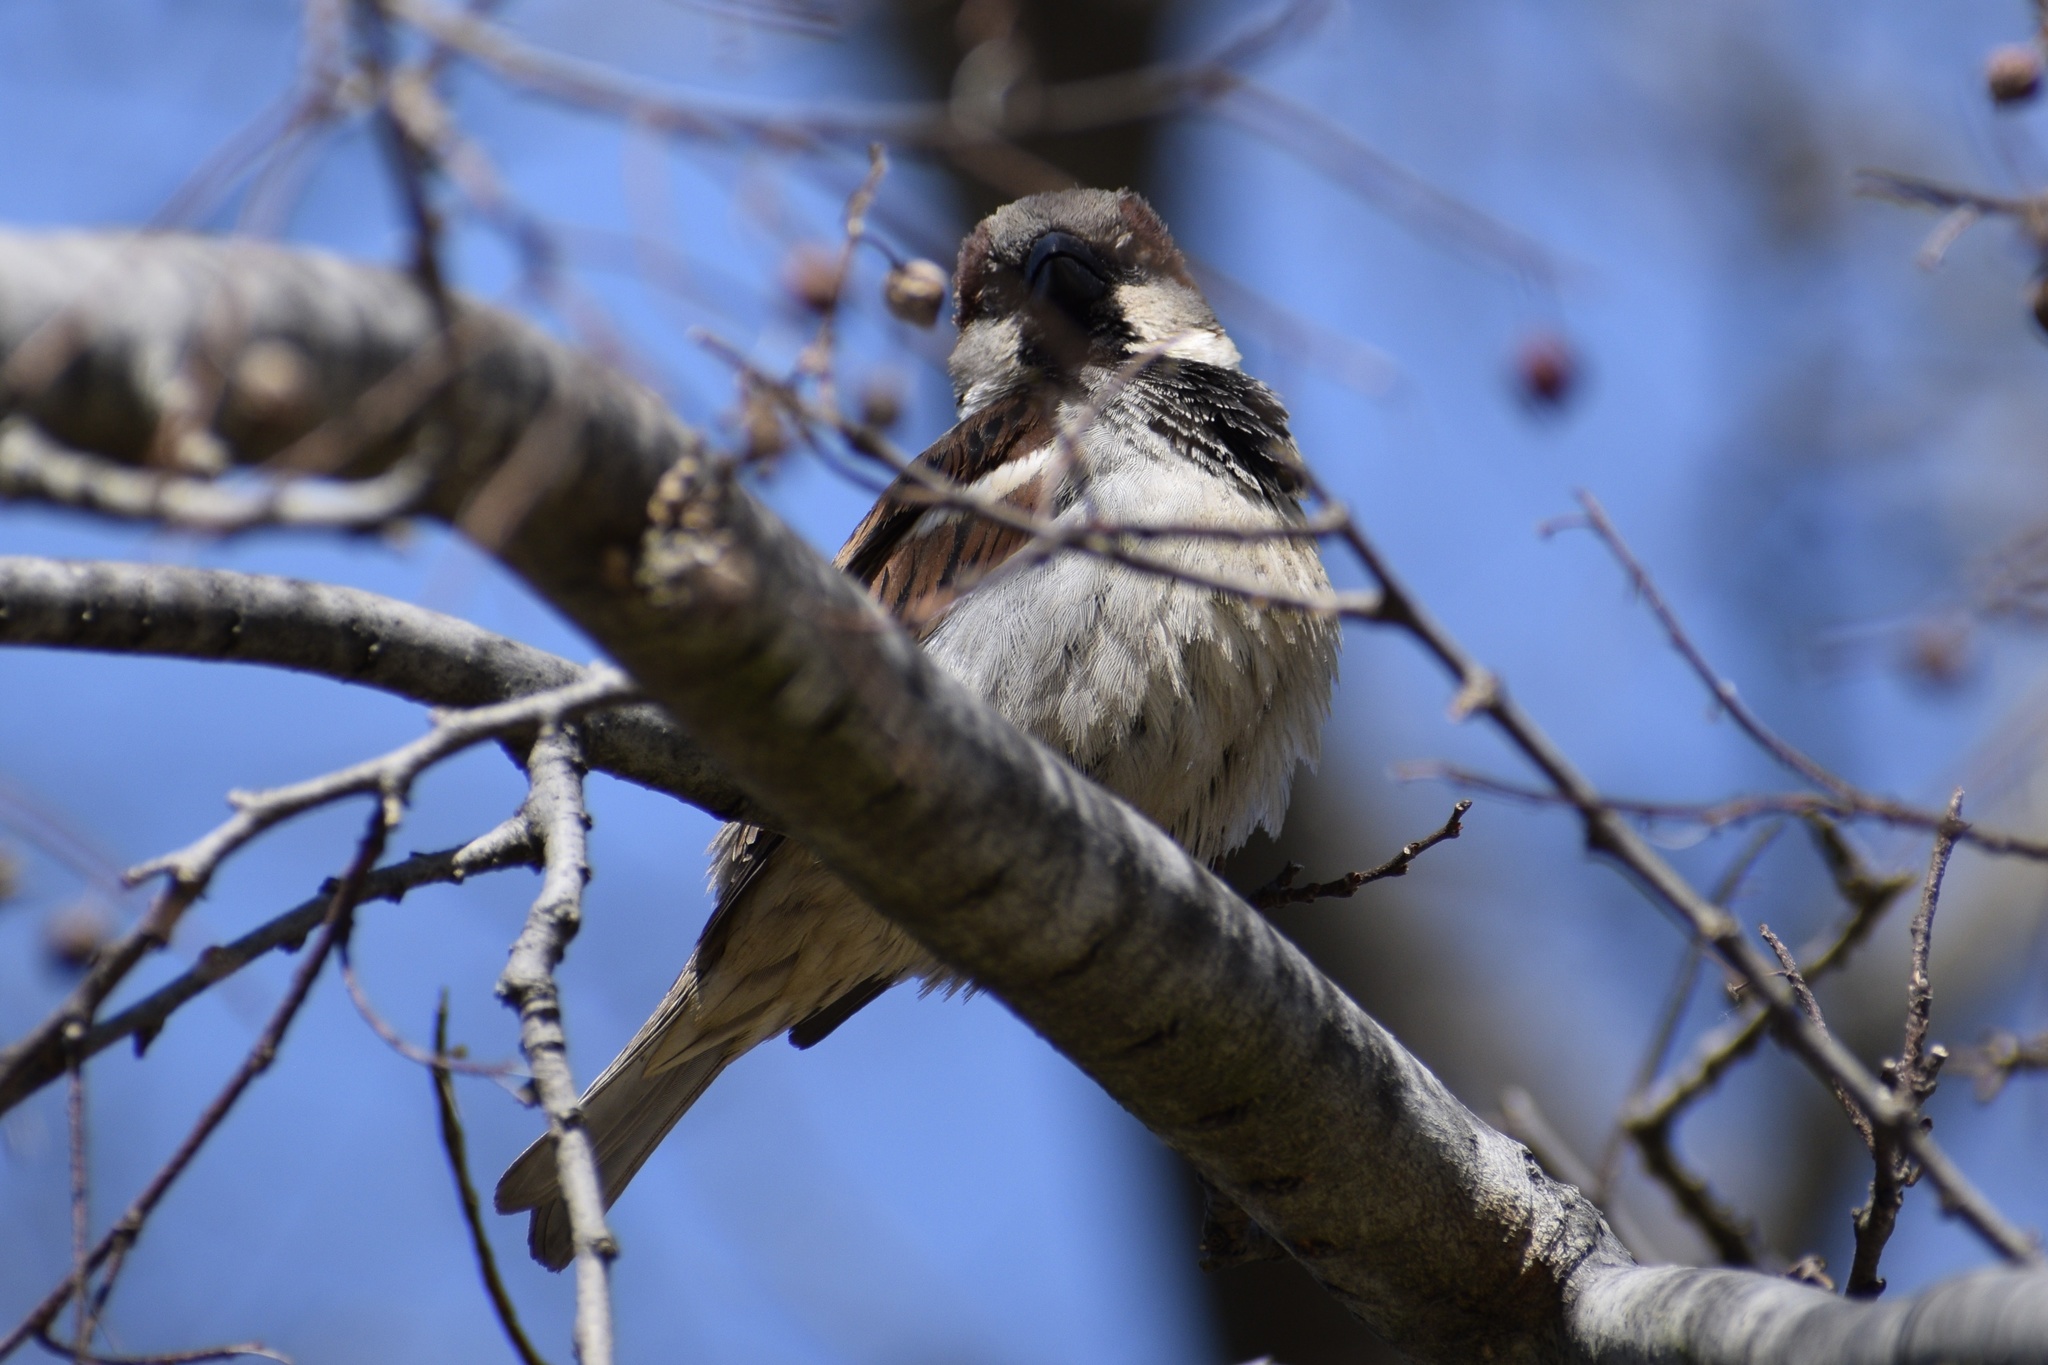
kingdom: Animalia
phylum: Chordata
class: Aves
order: Passeriformes
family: Passeridae
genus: Passer
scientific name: Passer domesticus
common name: House sparrow
